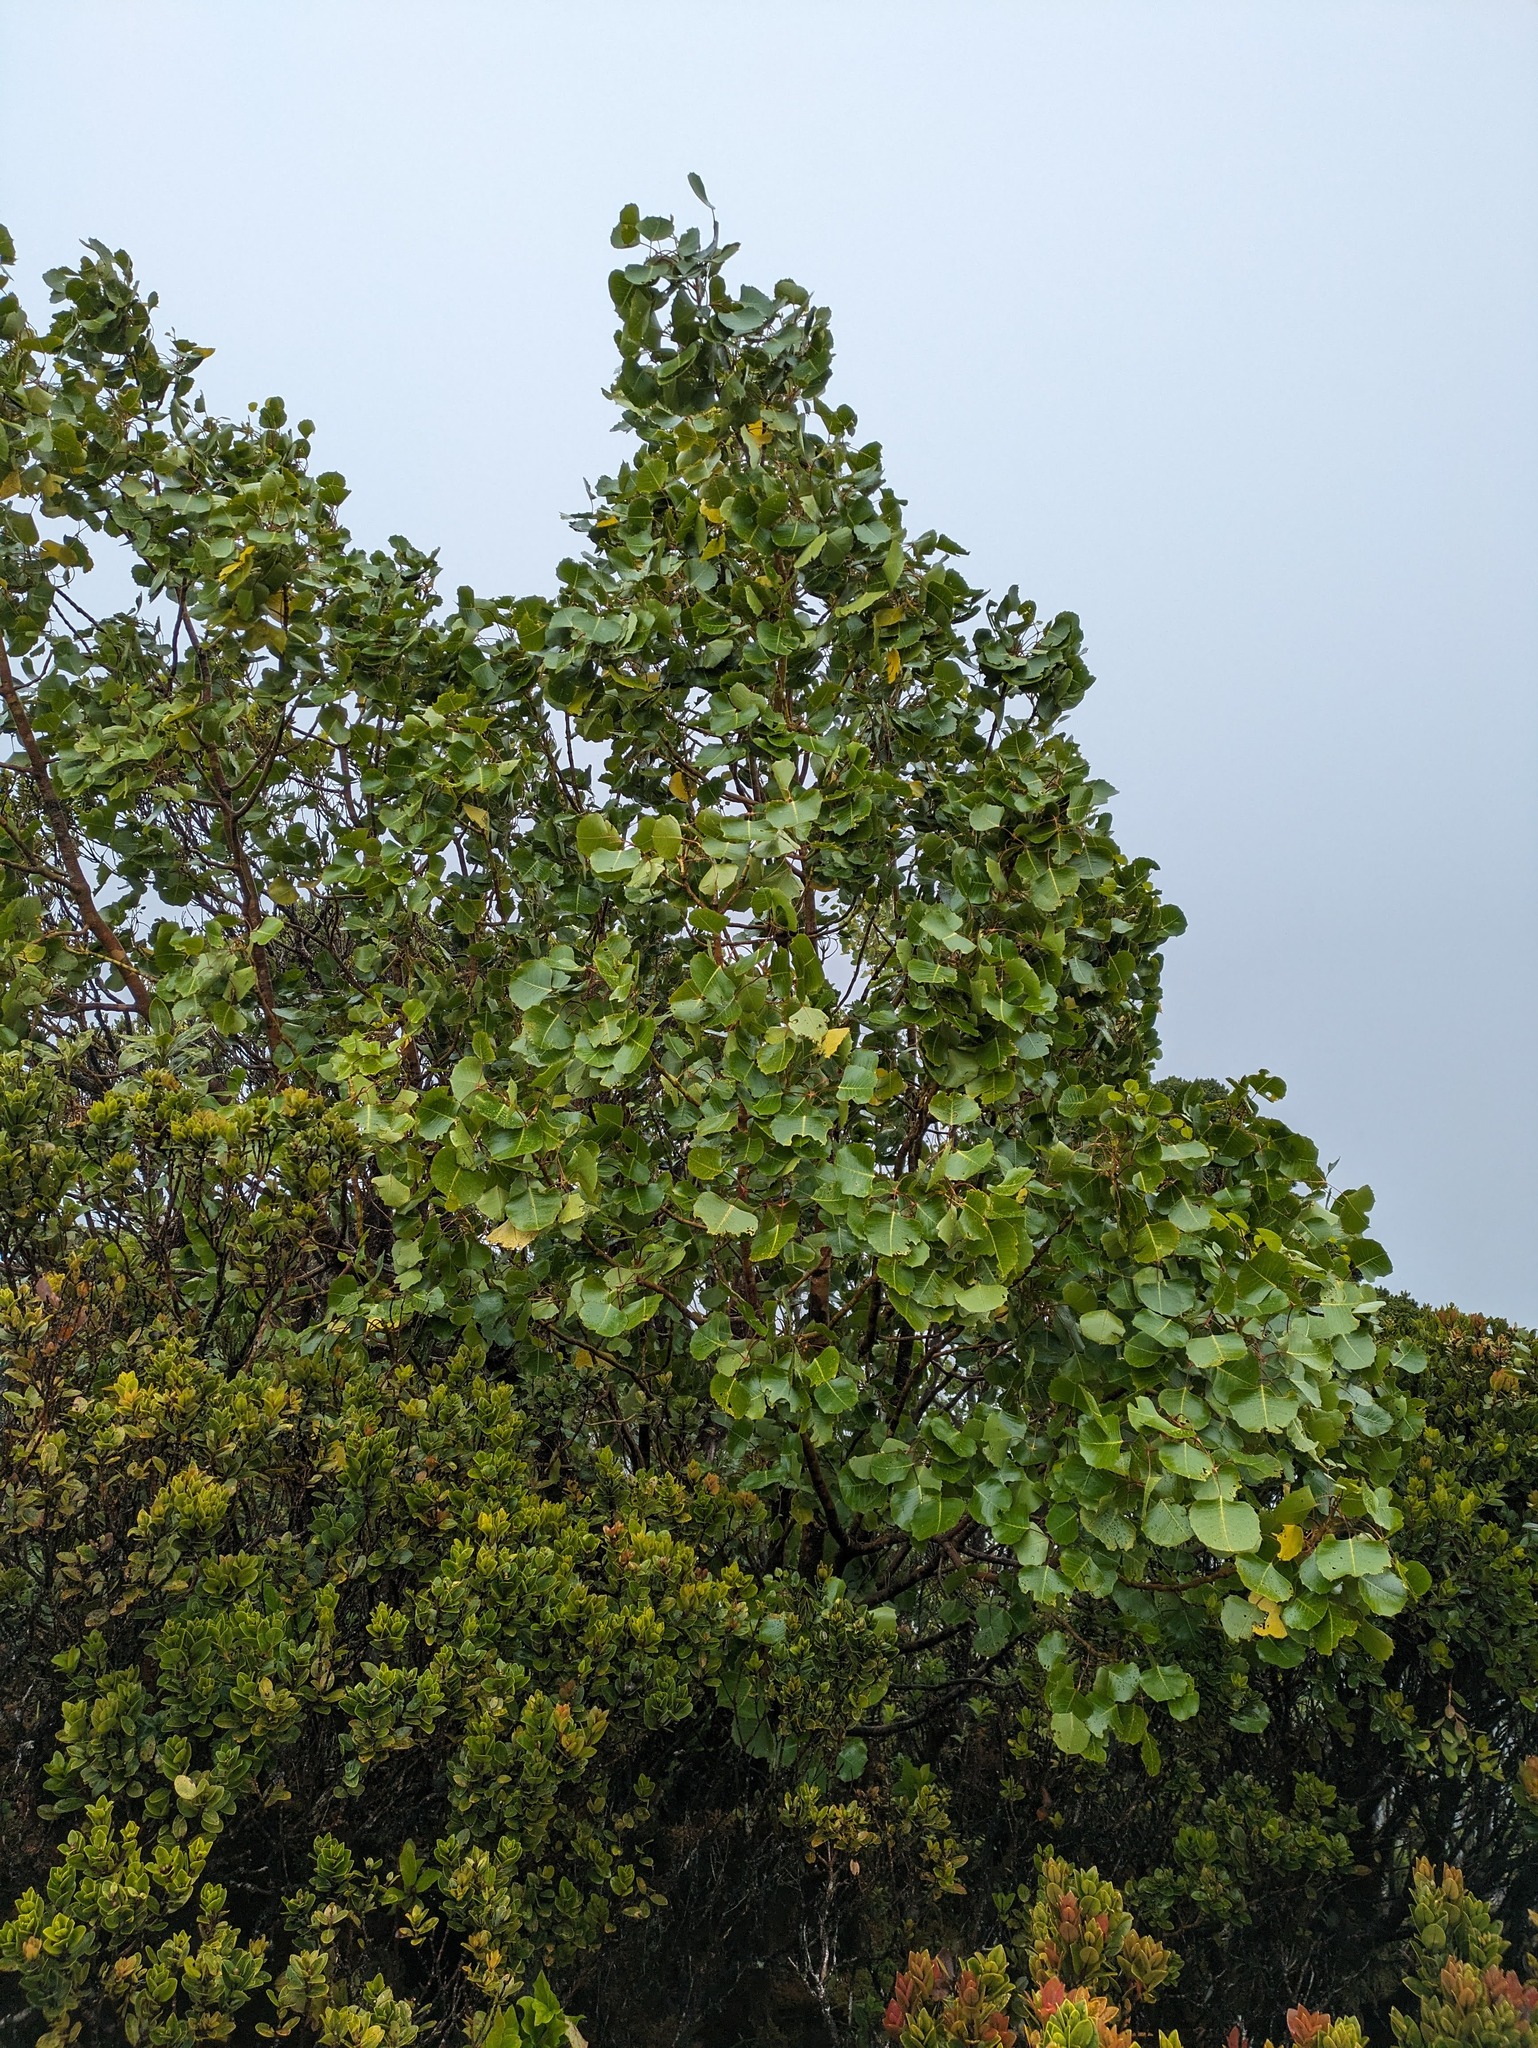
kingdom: Plantae
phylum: Tracheophyta
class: Magnoliopsida
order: Apiales
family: Araliaceae
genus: Cheirodendron
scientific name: Cheirodendron dominii
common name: Domin's club
